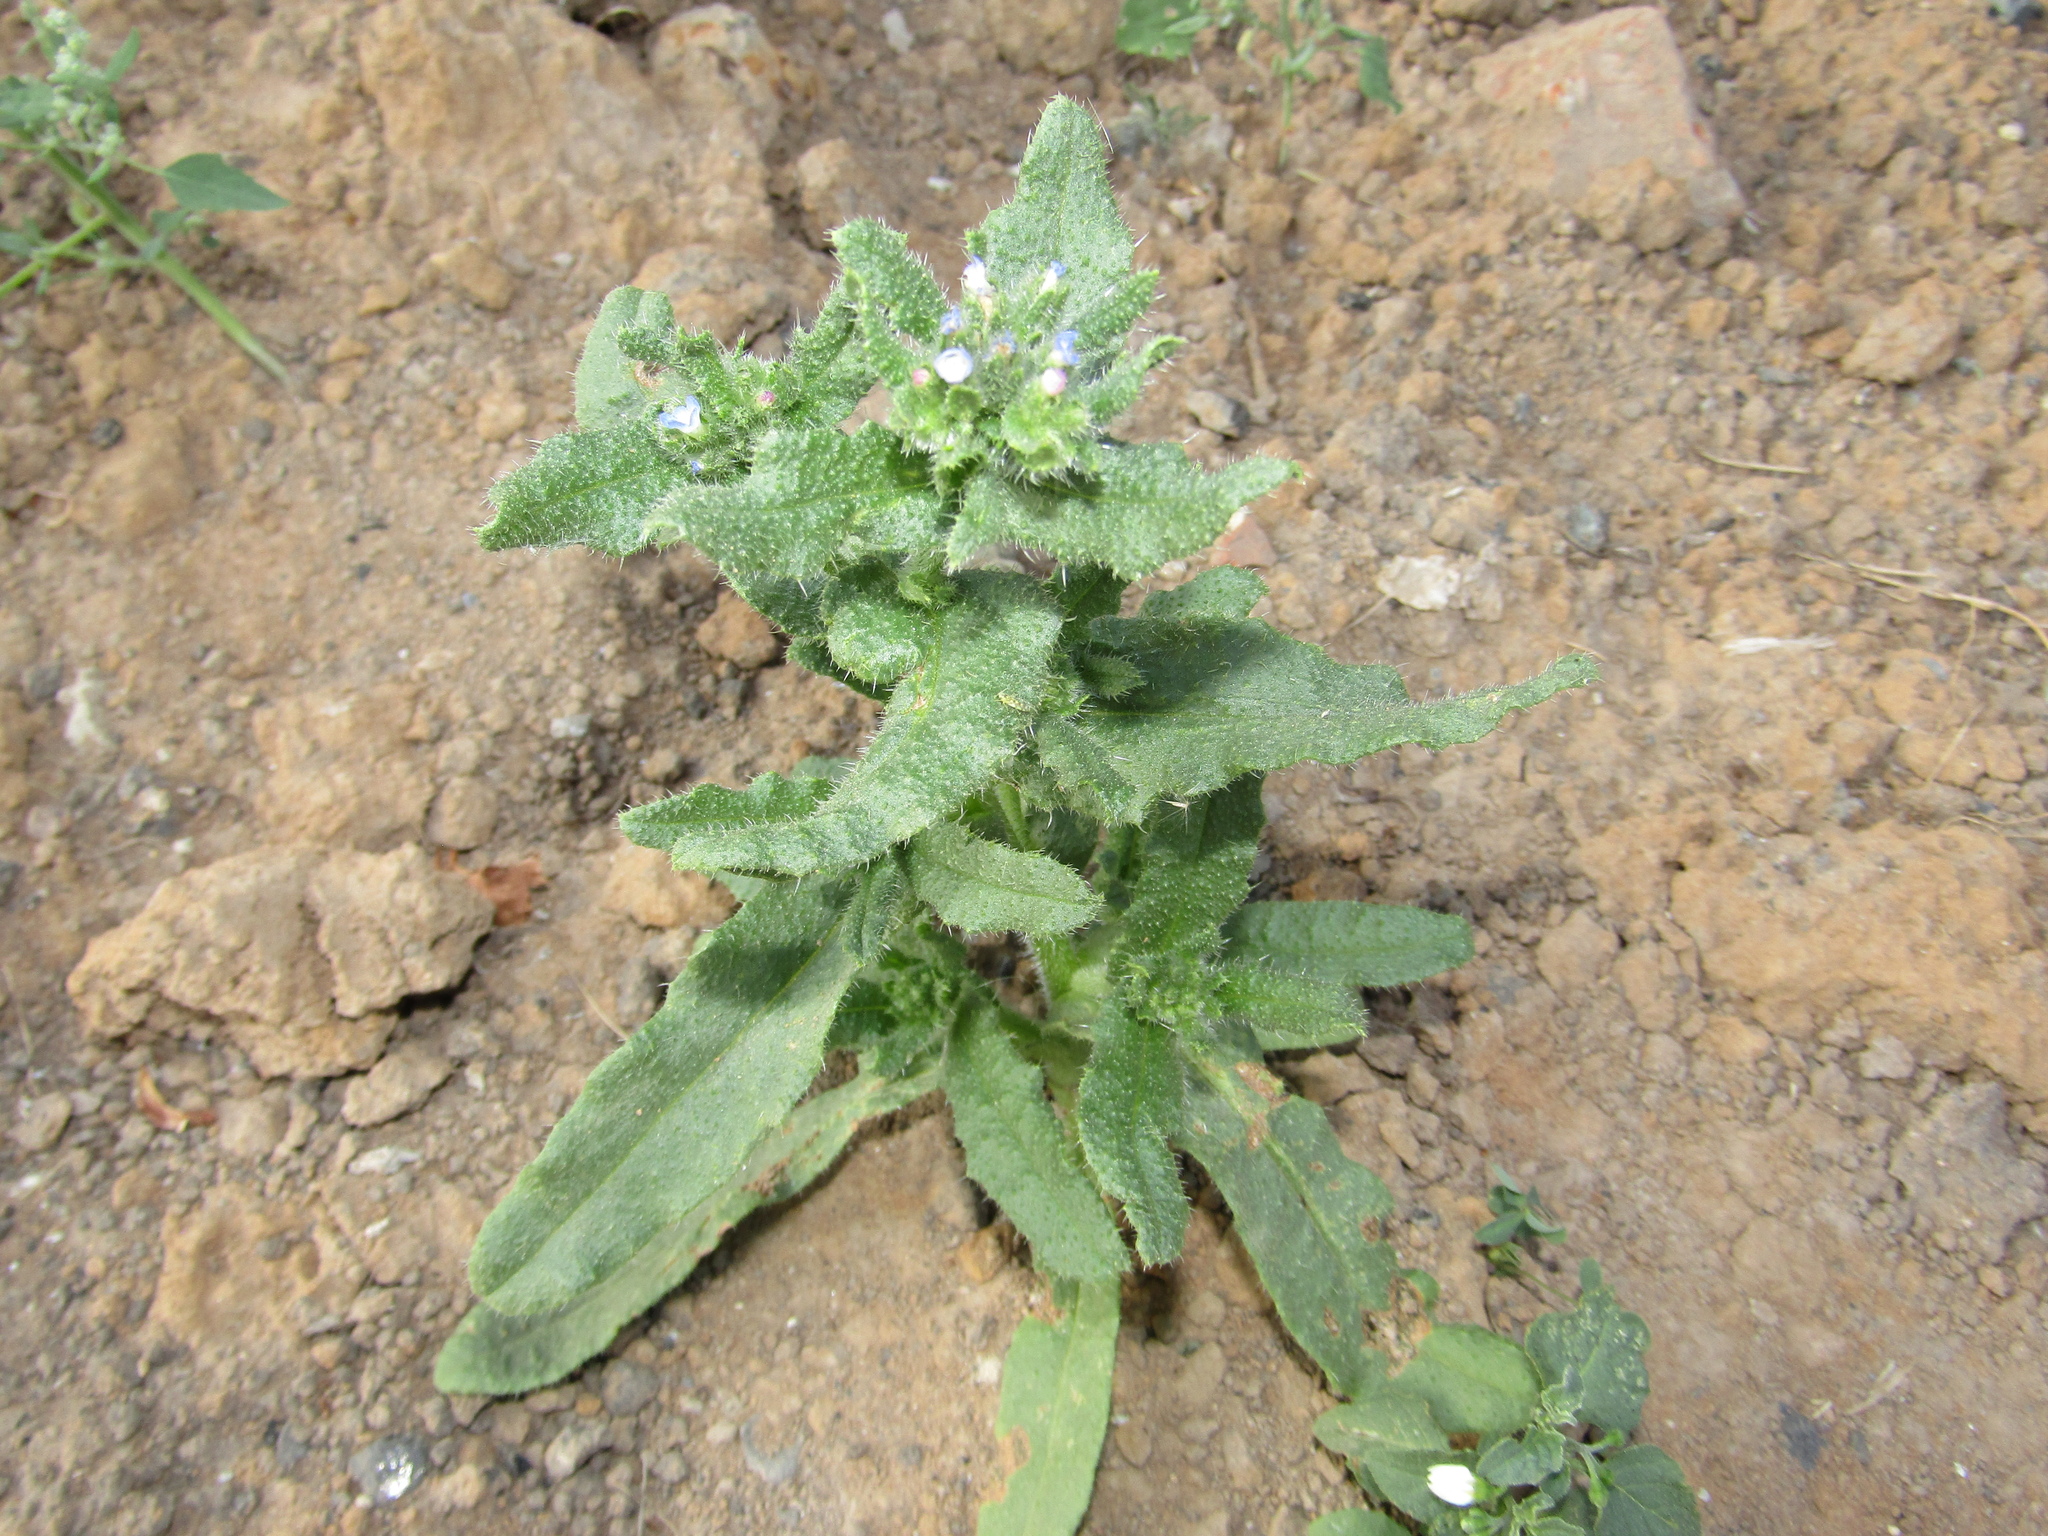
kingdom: Plantae
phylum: Tracheophyta
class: Magnoliopsida
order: Boraginales
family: Boraginaceae
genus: Lycopsis
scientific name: Lycopsis arvensis
